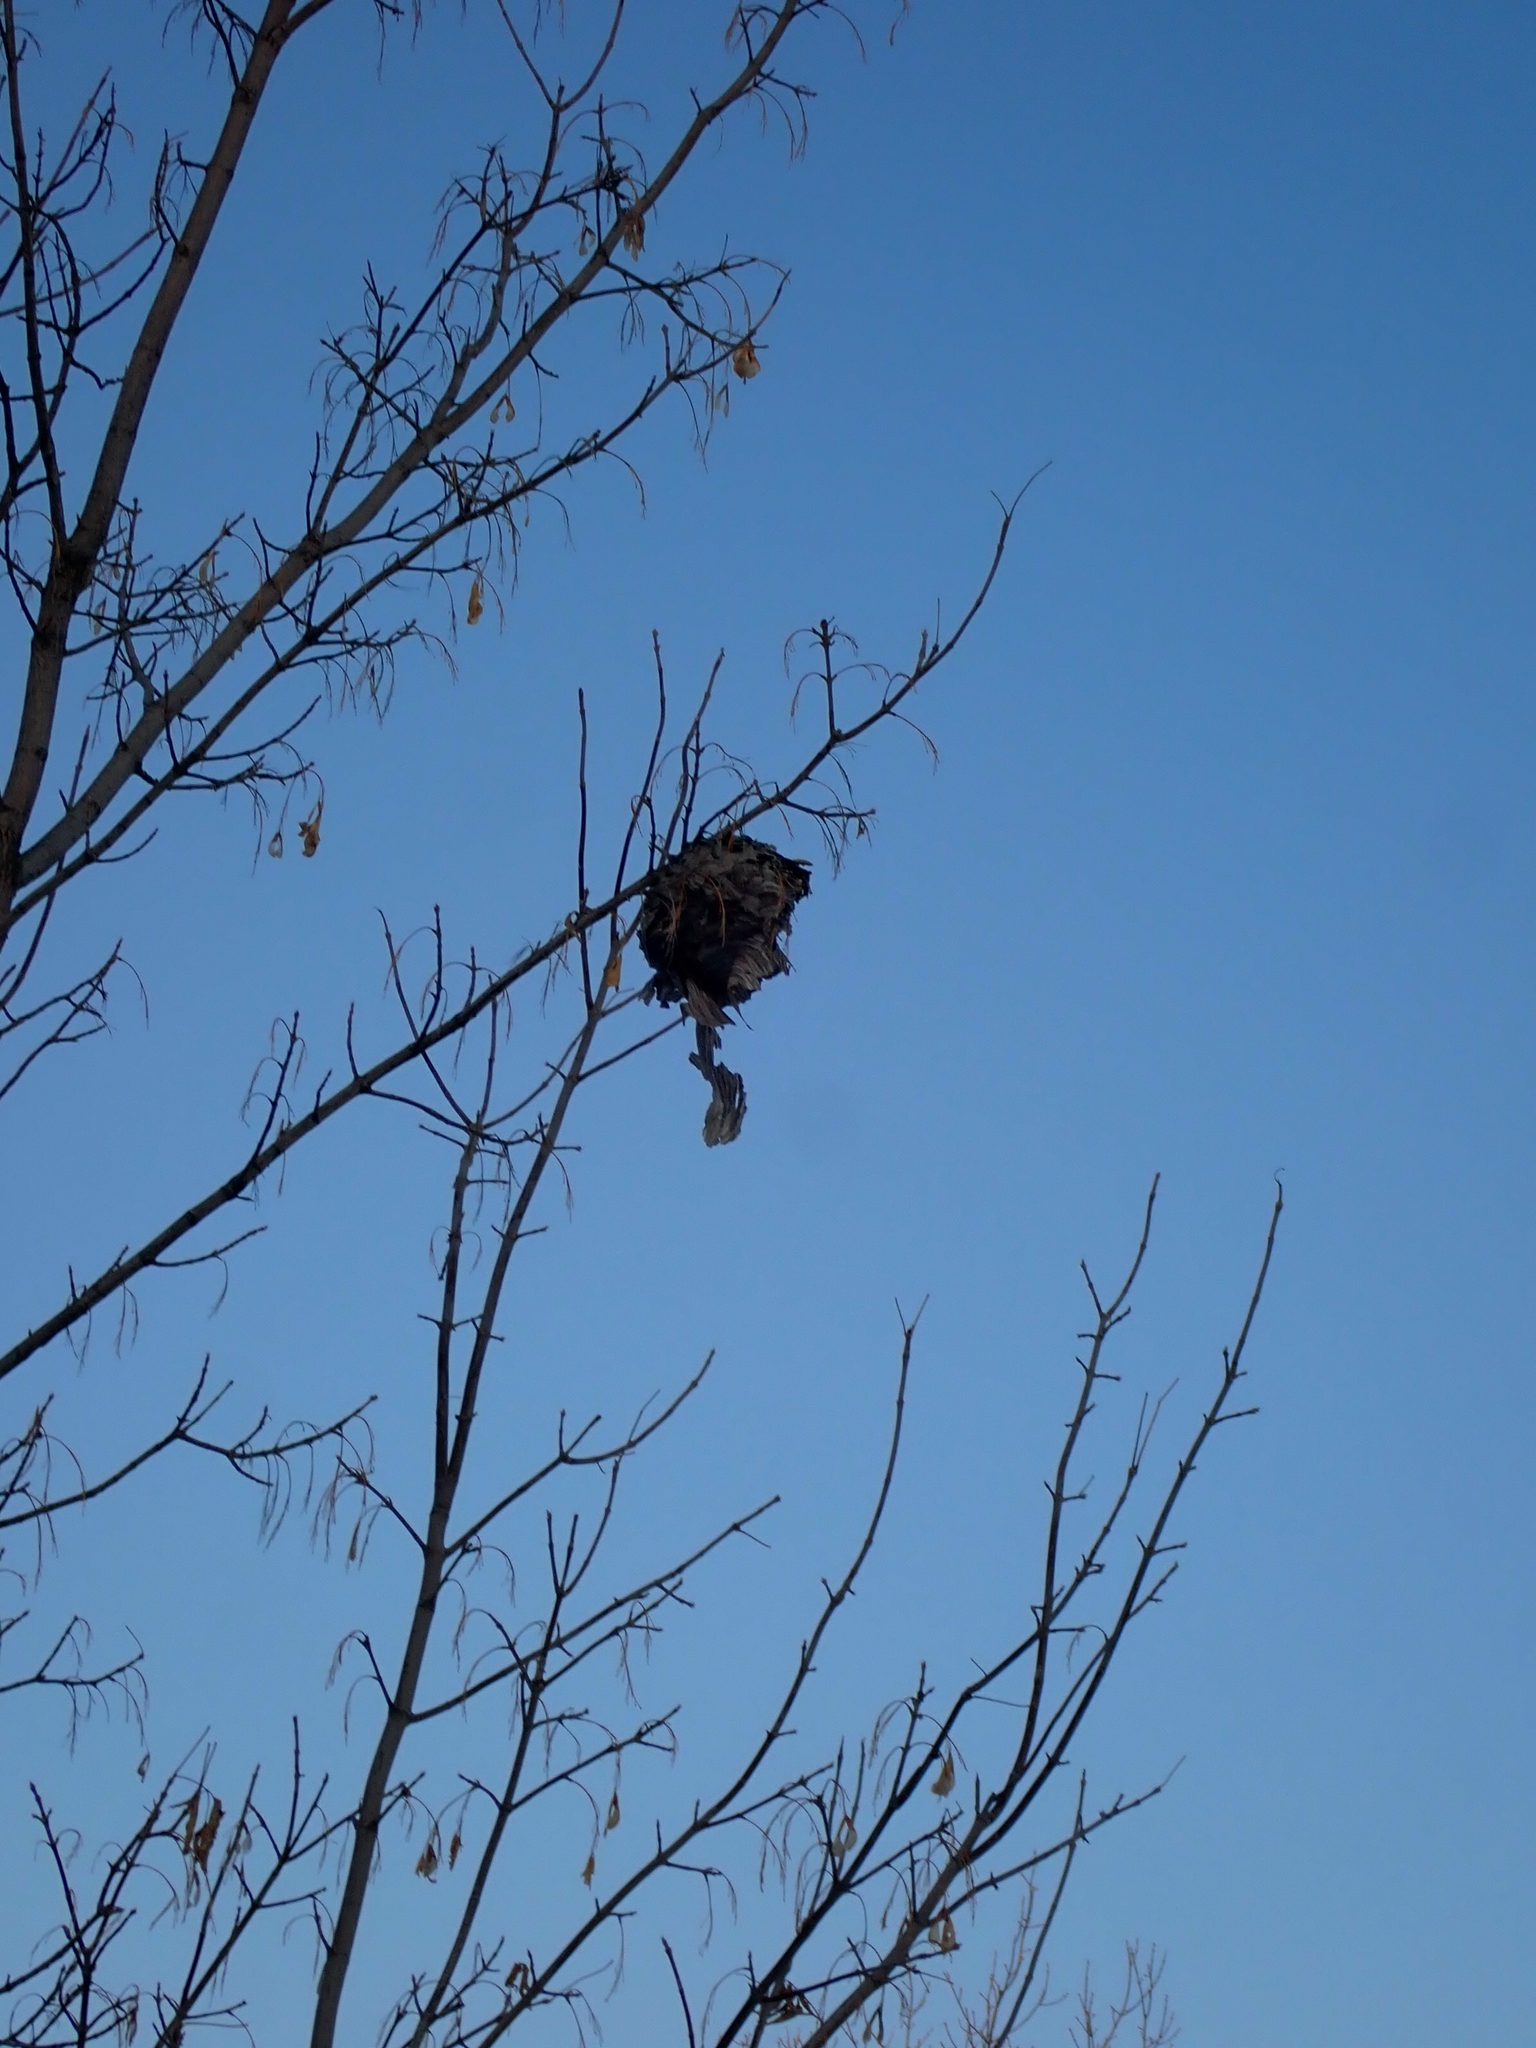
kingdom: Animalia
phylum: Arthropoda
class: Insecta
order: Hymenoptera
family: Vespidae
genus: Dolichovespula
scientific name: Dolichovespula
